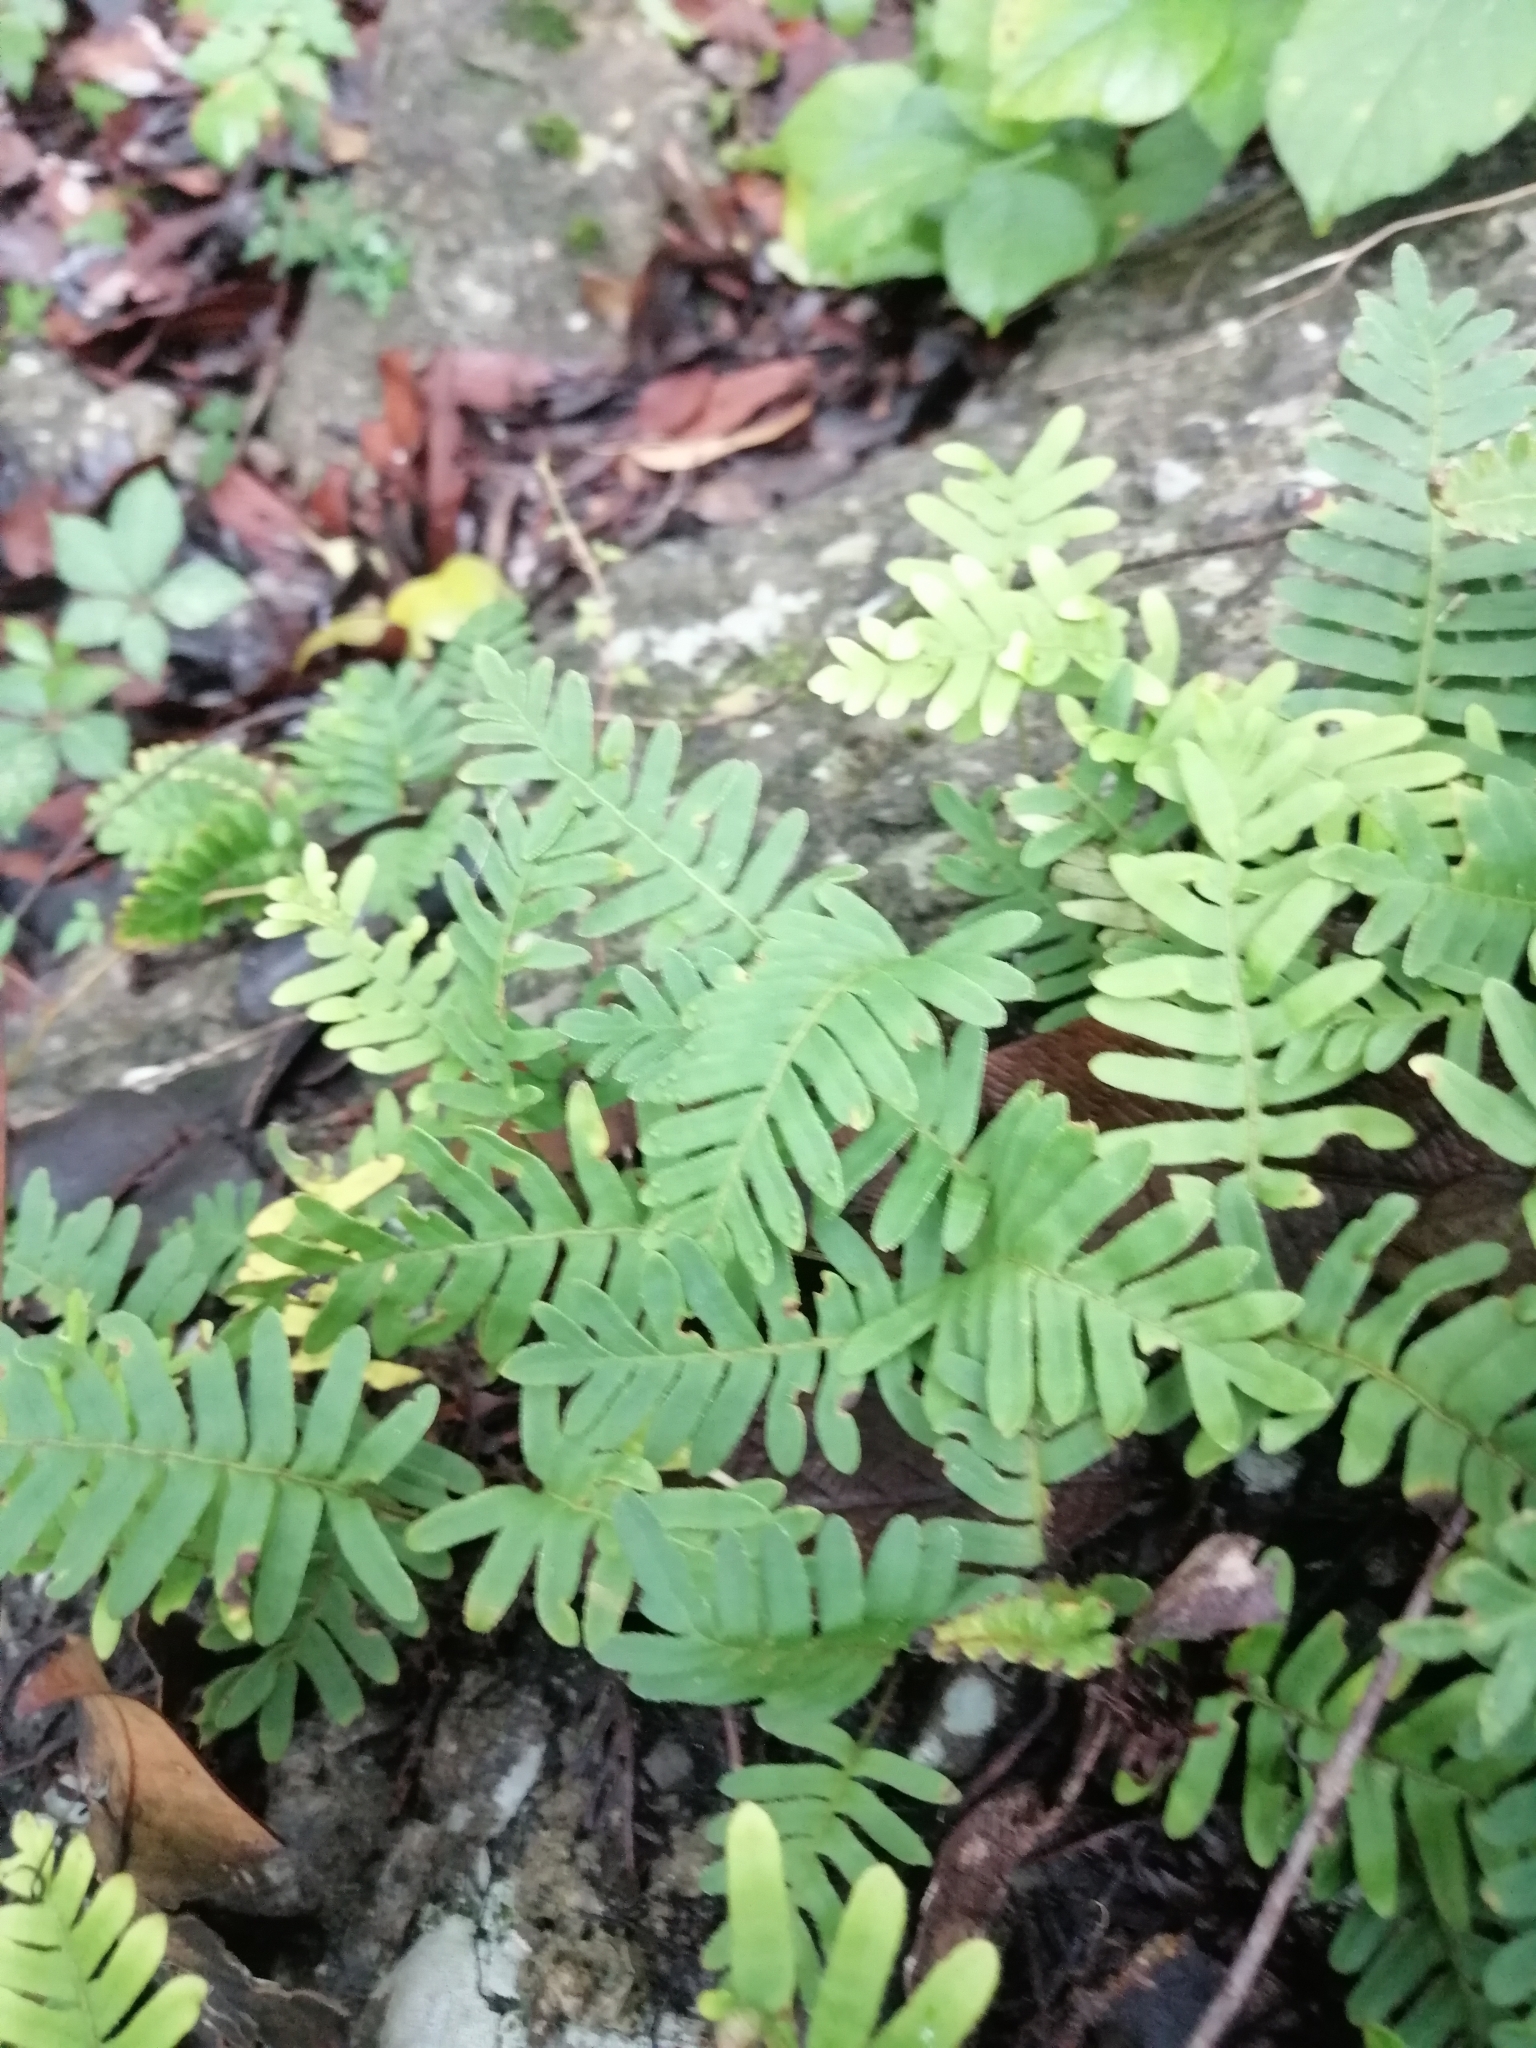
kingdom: Plantae
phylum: Tracheophyta
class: Polypodiopsida
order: Polypodiales
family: Polypodiaceae
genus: Pleopeltis
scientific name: Pleopeltis michauxiana
